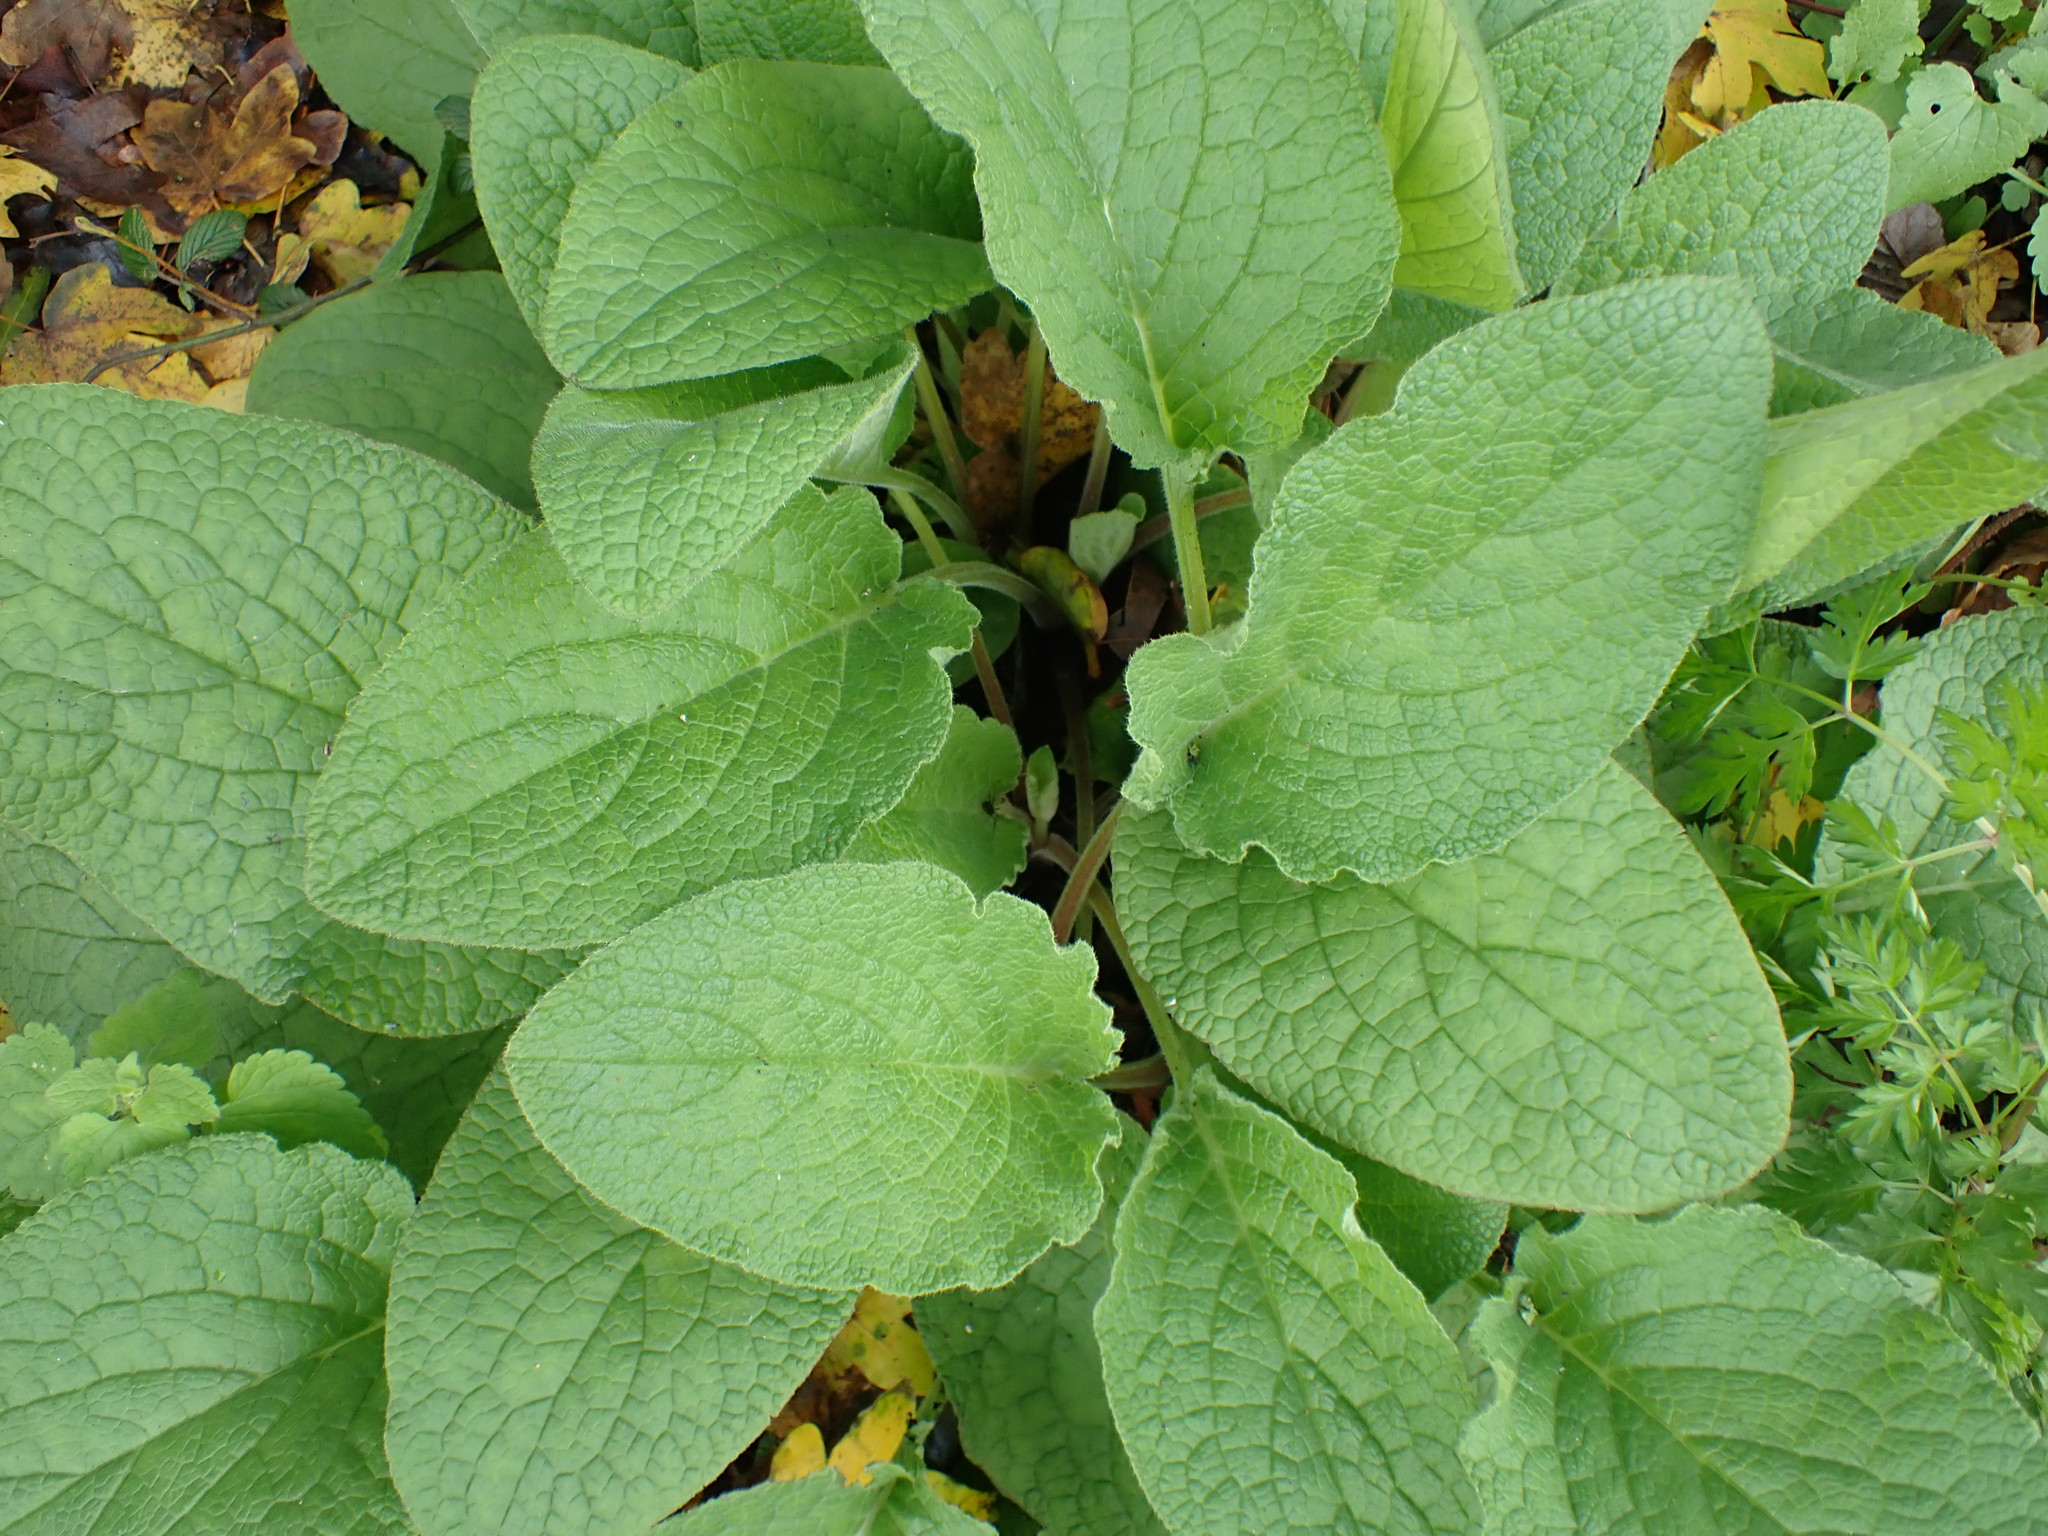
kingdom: Plantae
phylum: Tracheophyta
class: Magnoliopsida
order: Lamiales
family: Plantaginaceae
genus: Digitalis
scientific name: Digitalis purpurea
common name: Foxglove
